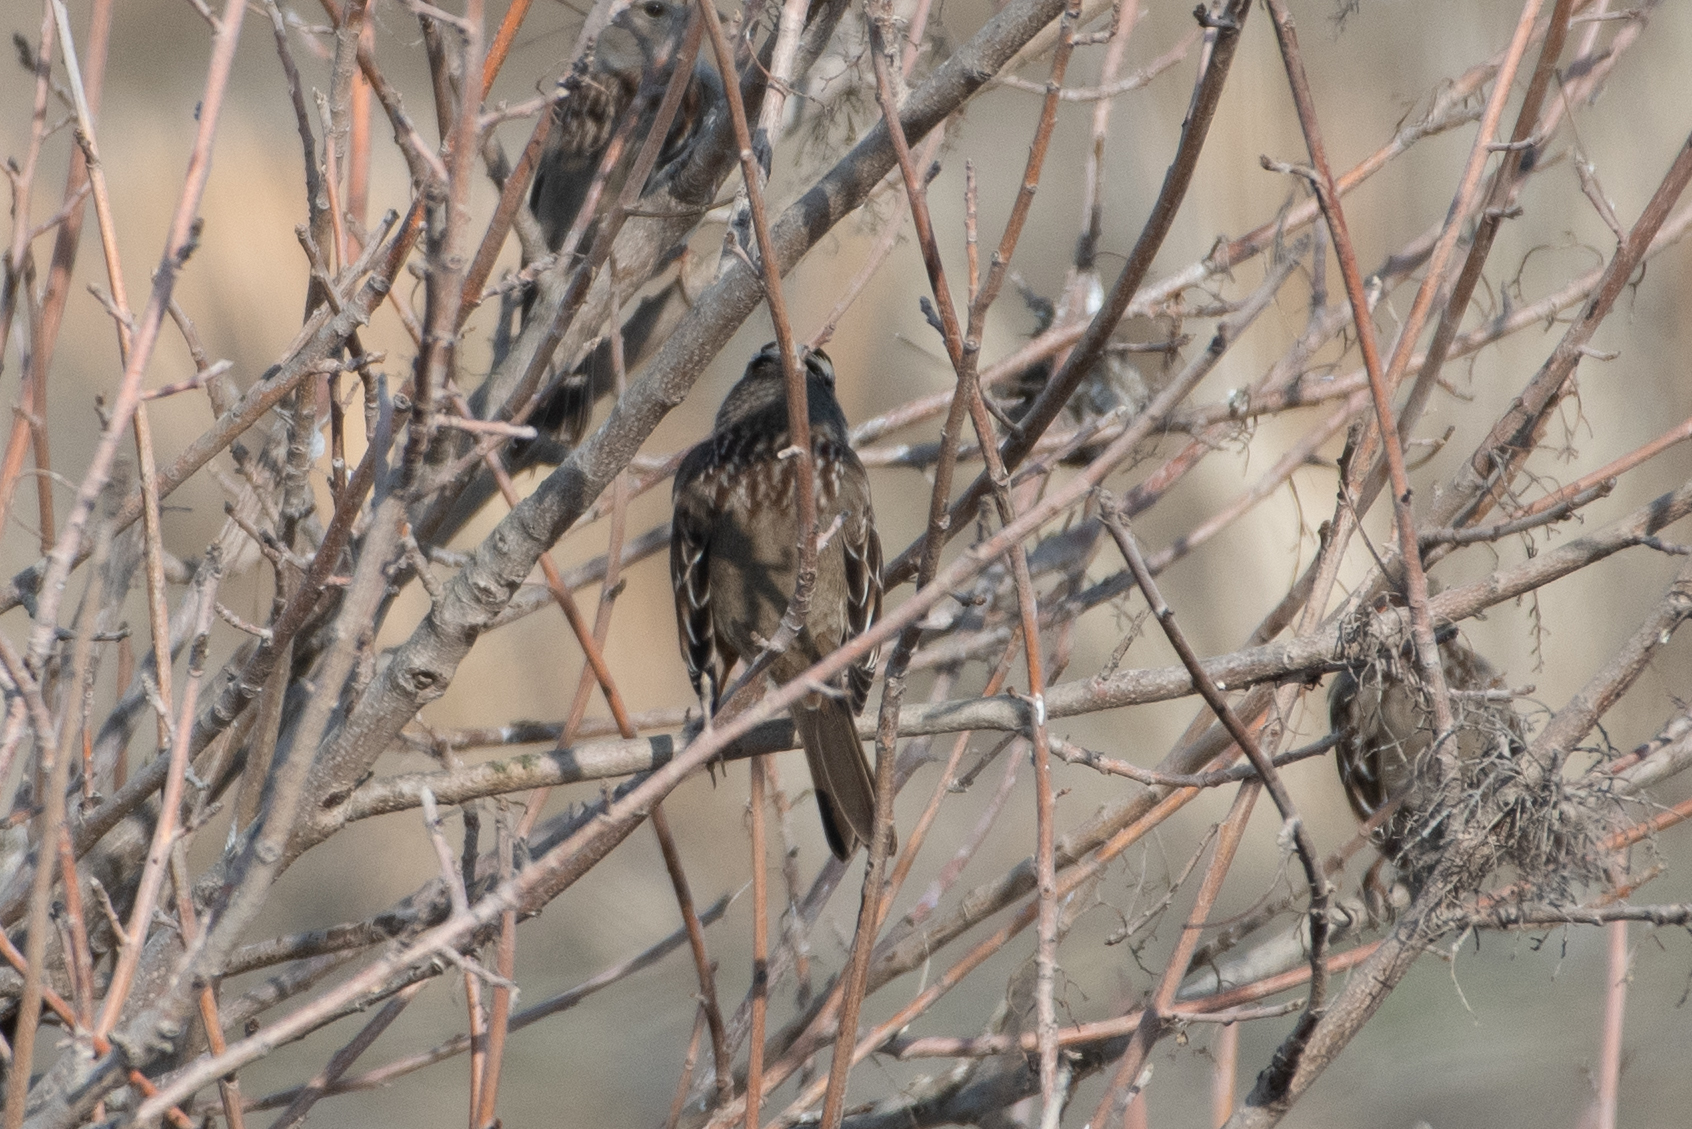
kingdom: Animalia
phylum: Chordata
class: Aves
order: Passeriformes
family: Passerellidae
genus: Zonotrichia
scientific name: Zonotrichia leucophrys
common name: White-crowned sparrow
